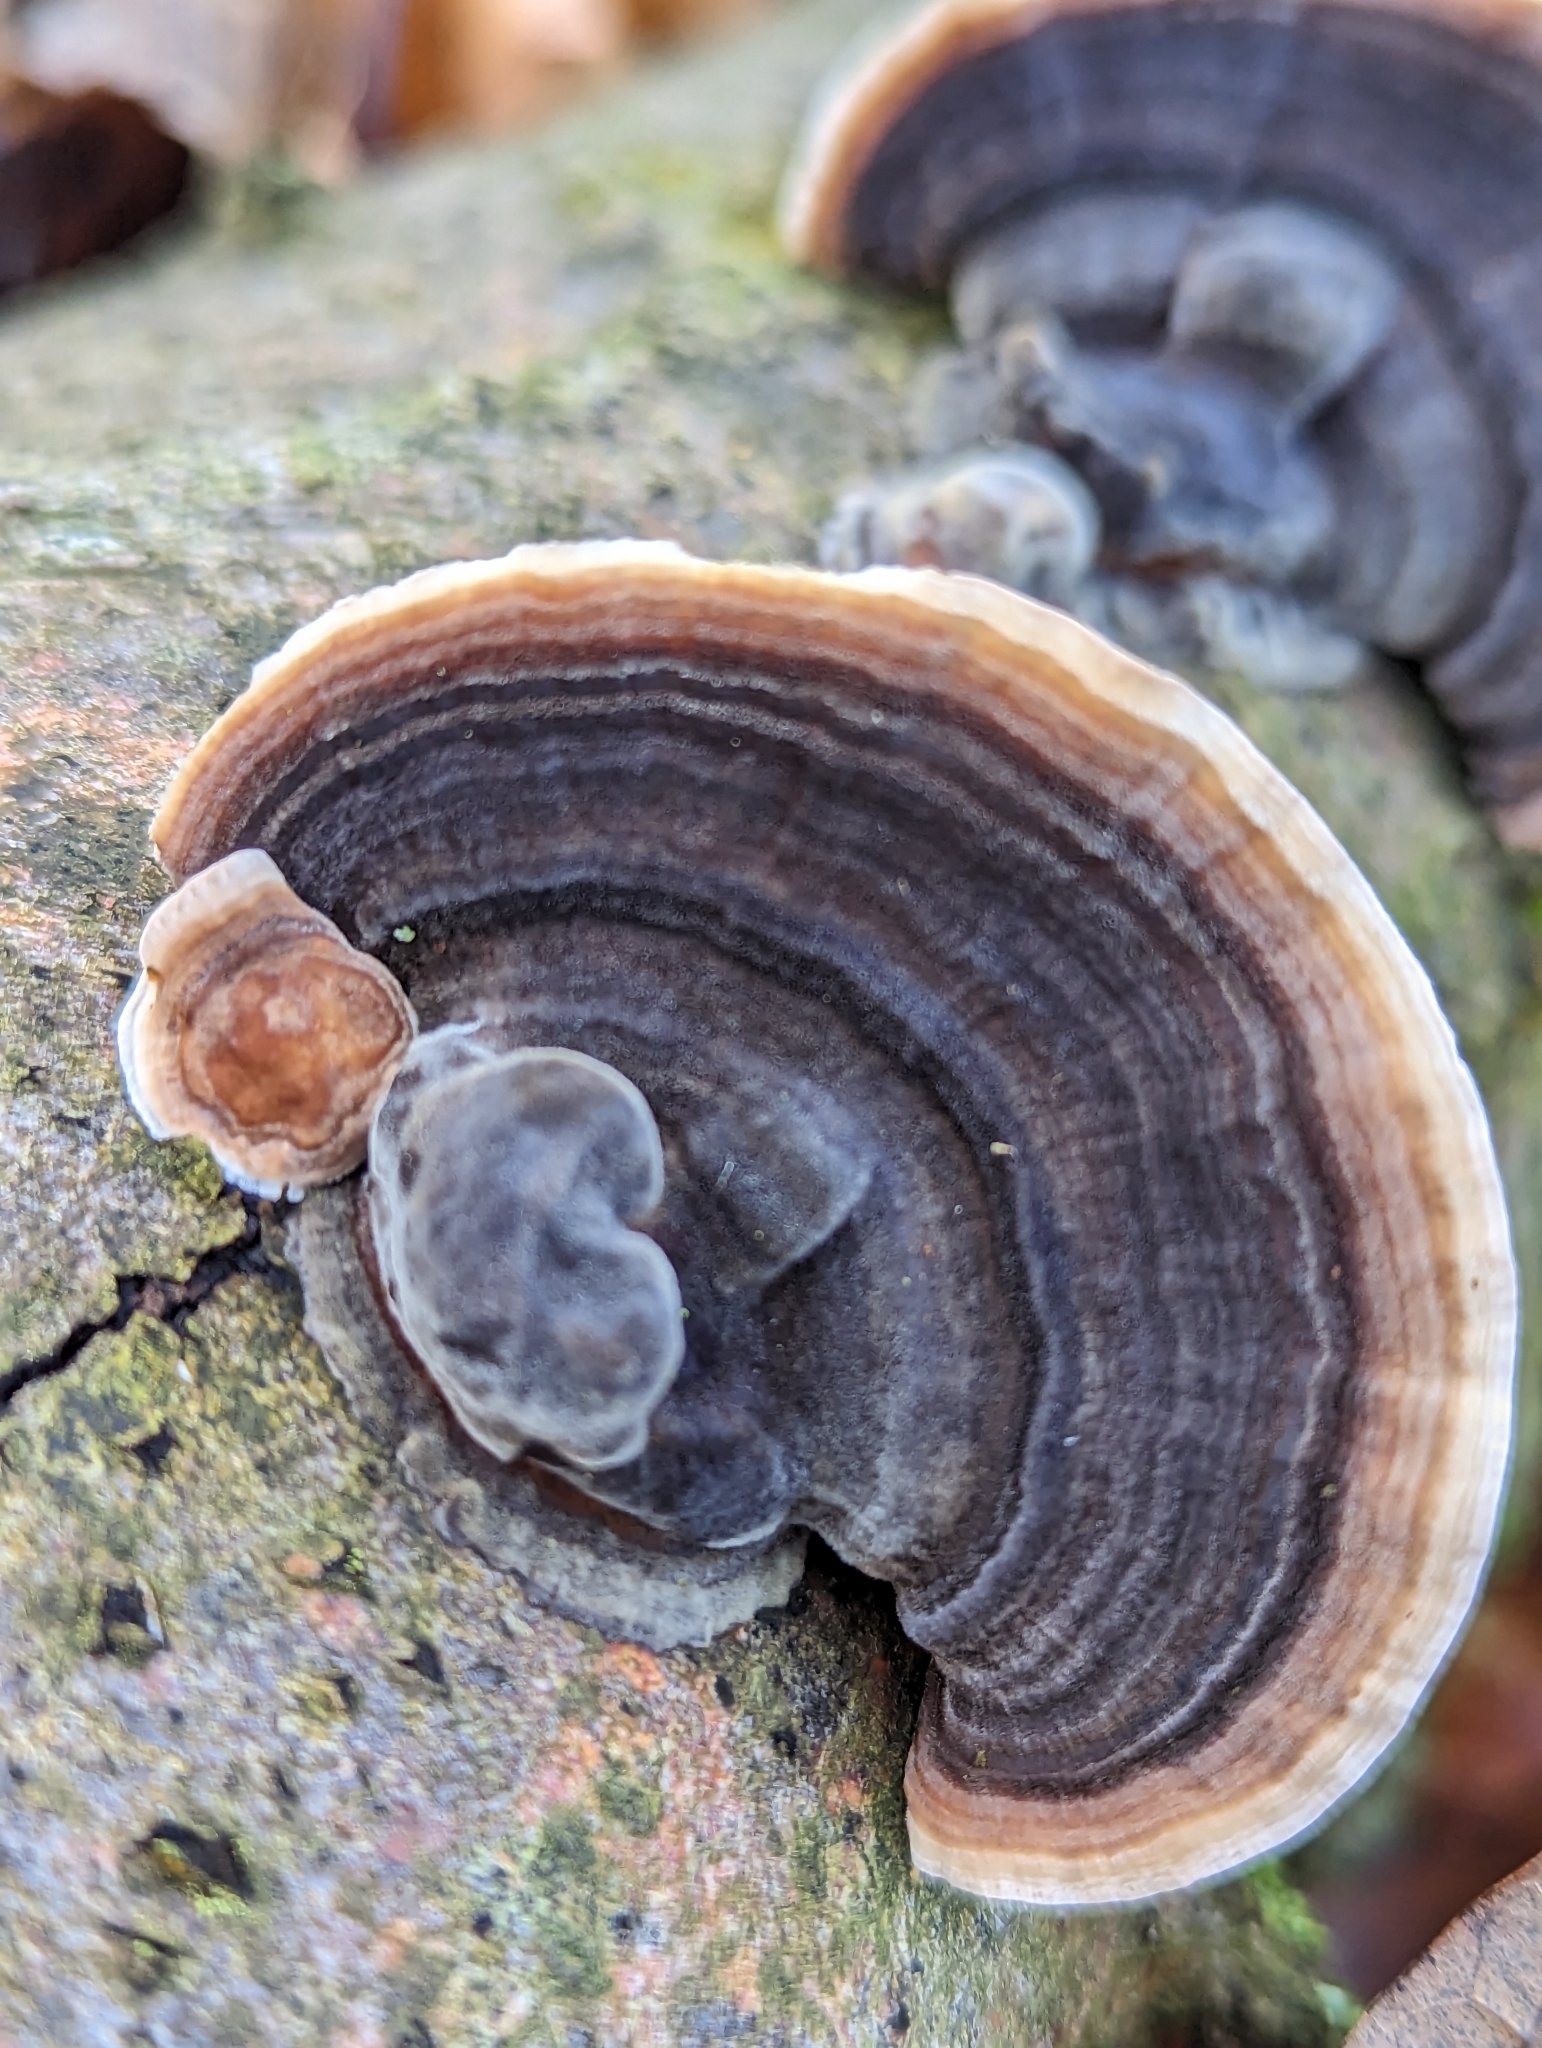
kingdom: Fungi
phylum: Basidiomycota
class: Agaricomycetes
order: Polyporales
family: Polyporaceae
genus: Trametes
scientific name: Trametes versicolor
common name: Turkeytail
